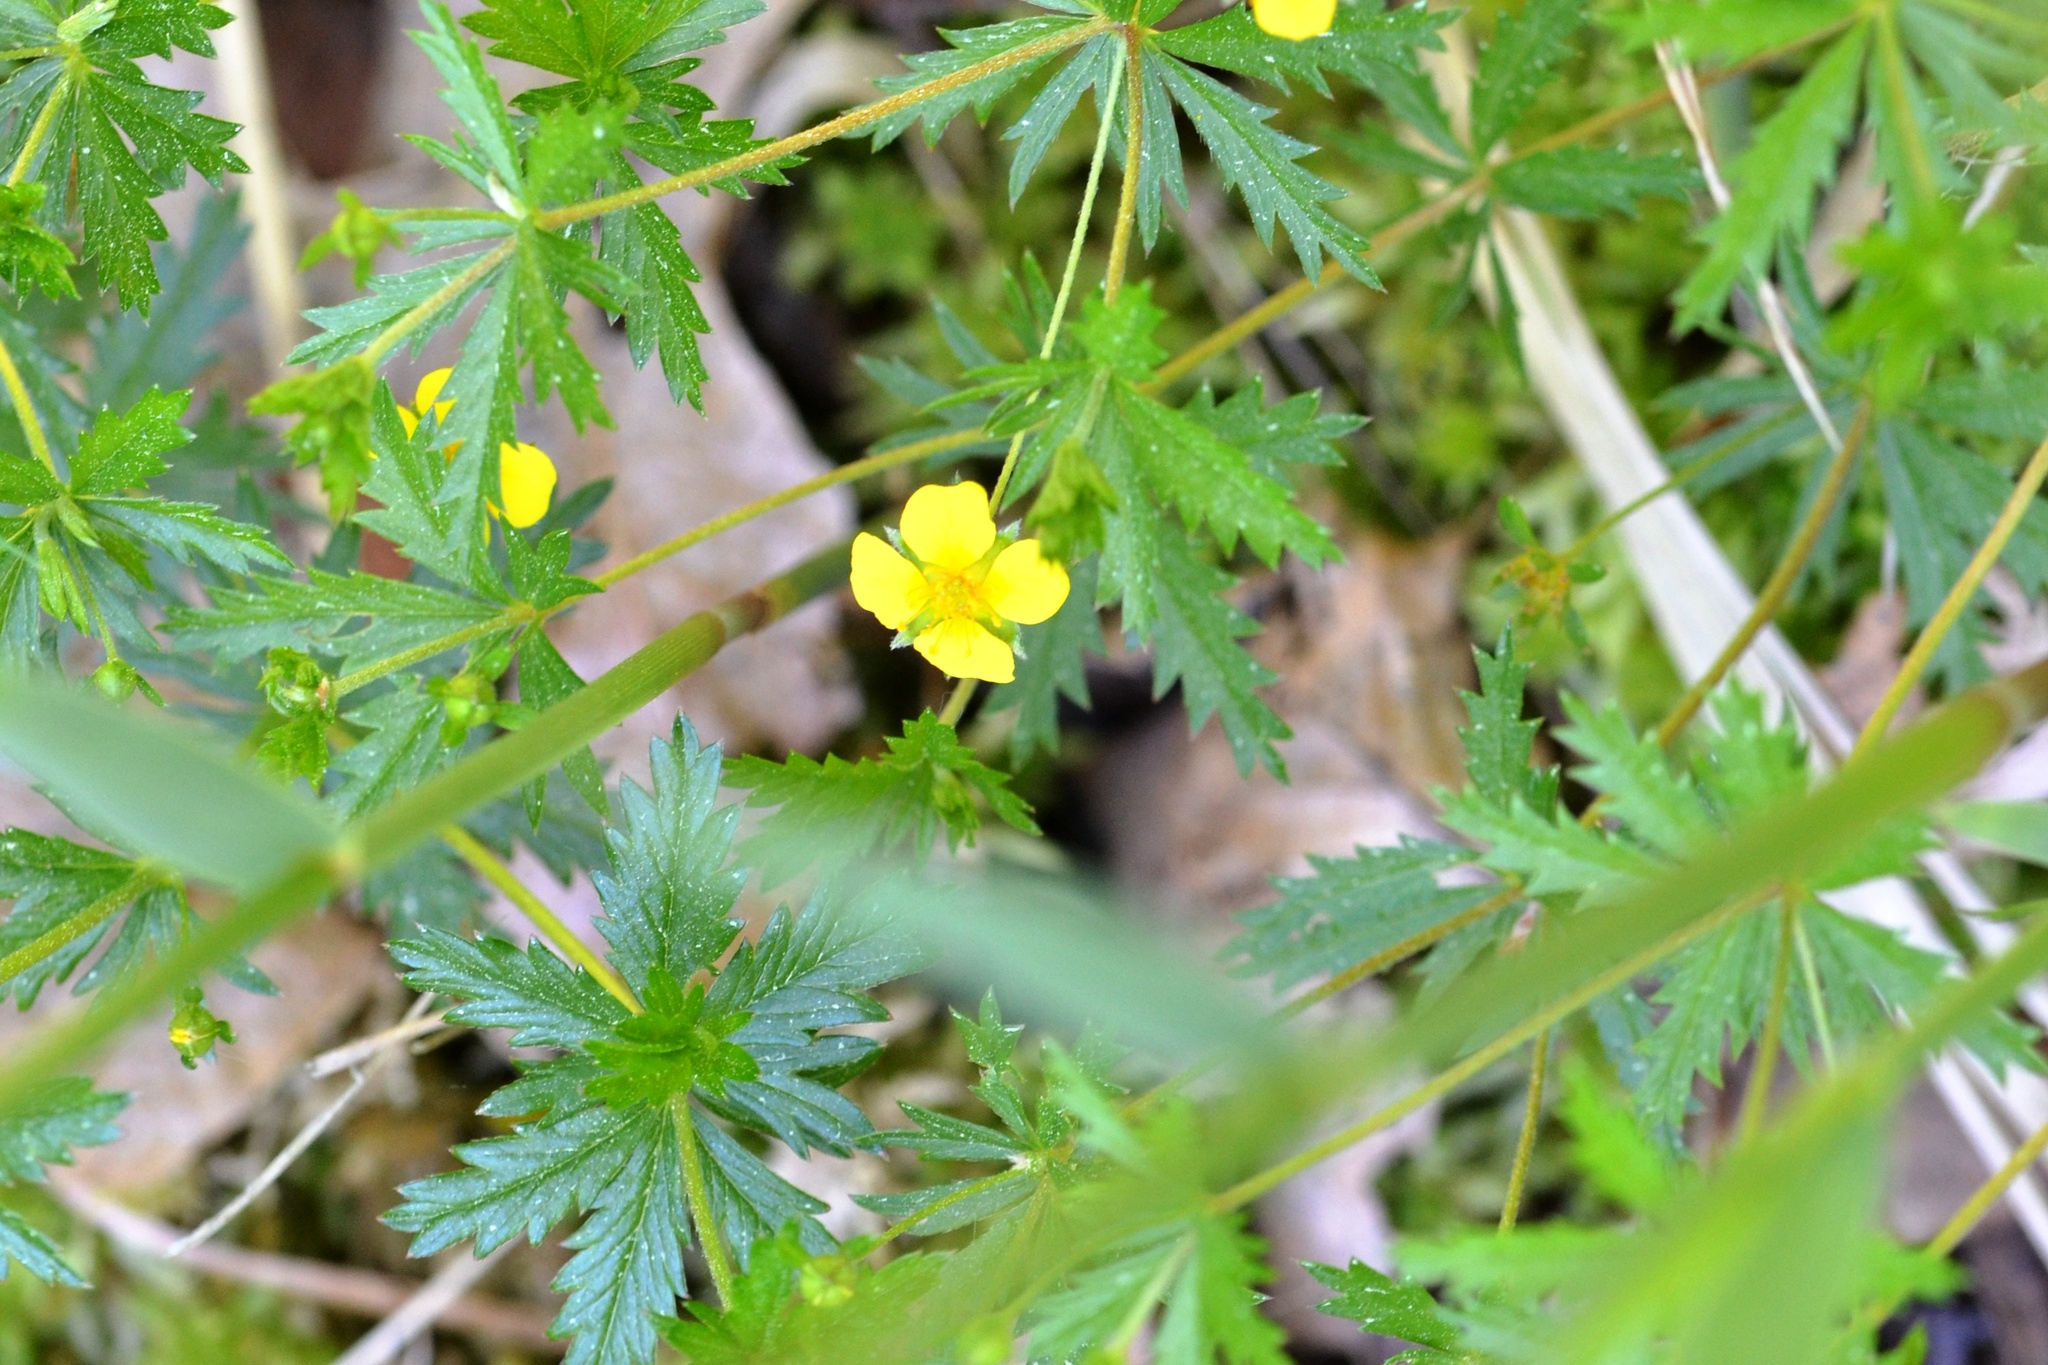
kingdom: Plantae
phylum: Tracheophyta
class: Magnoliopsida
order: Rosales
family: Rosaceae
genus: Potentilla
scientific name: Potentilla erecta
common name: Tormentil
